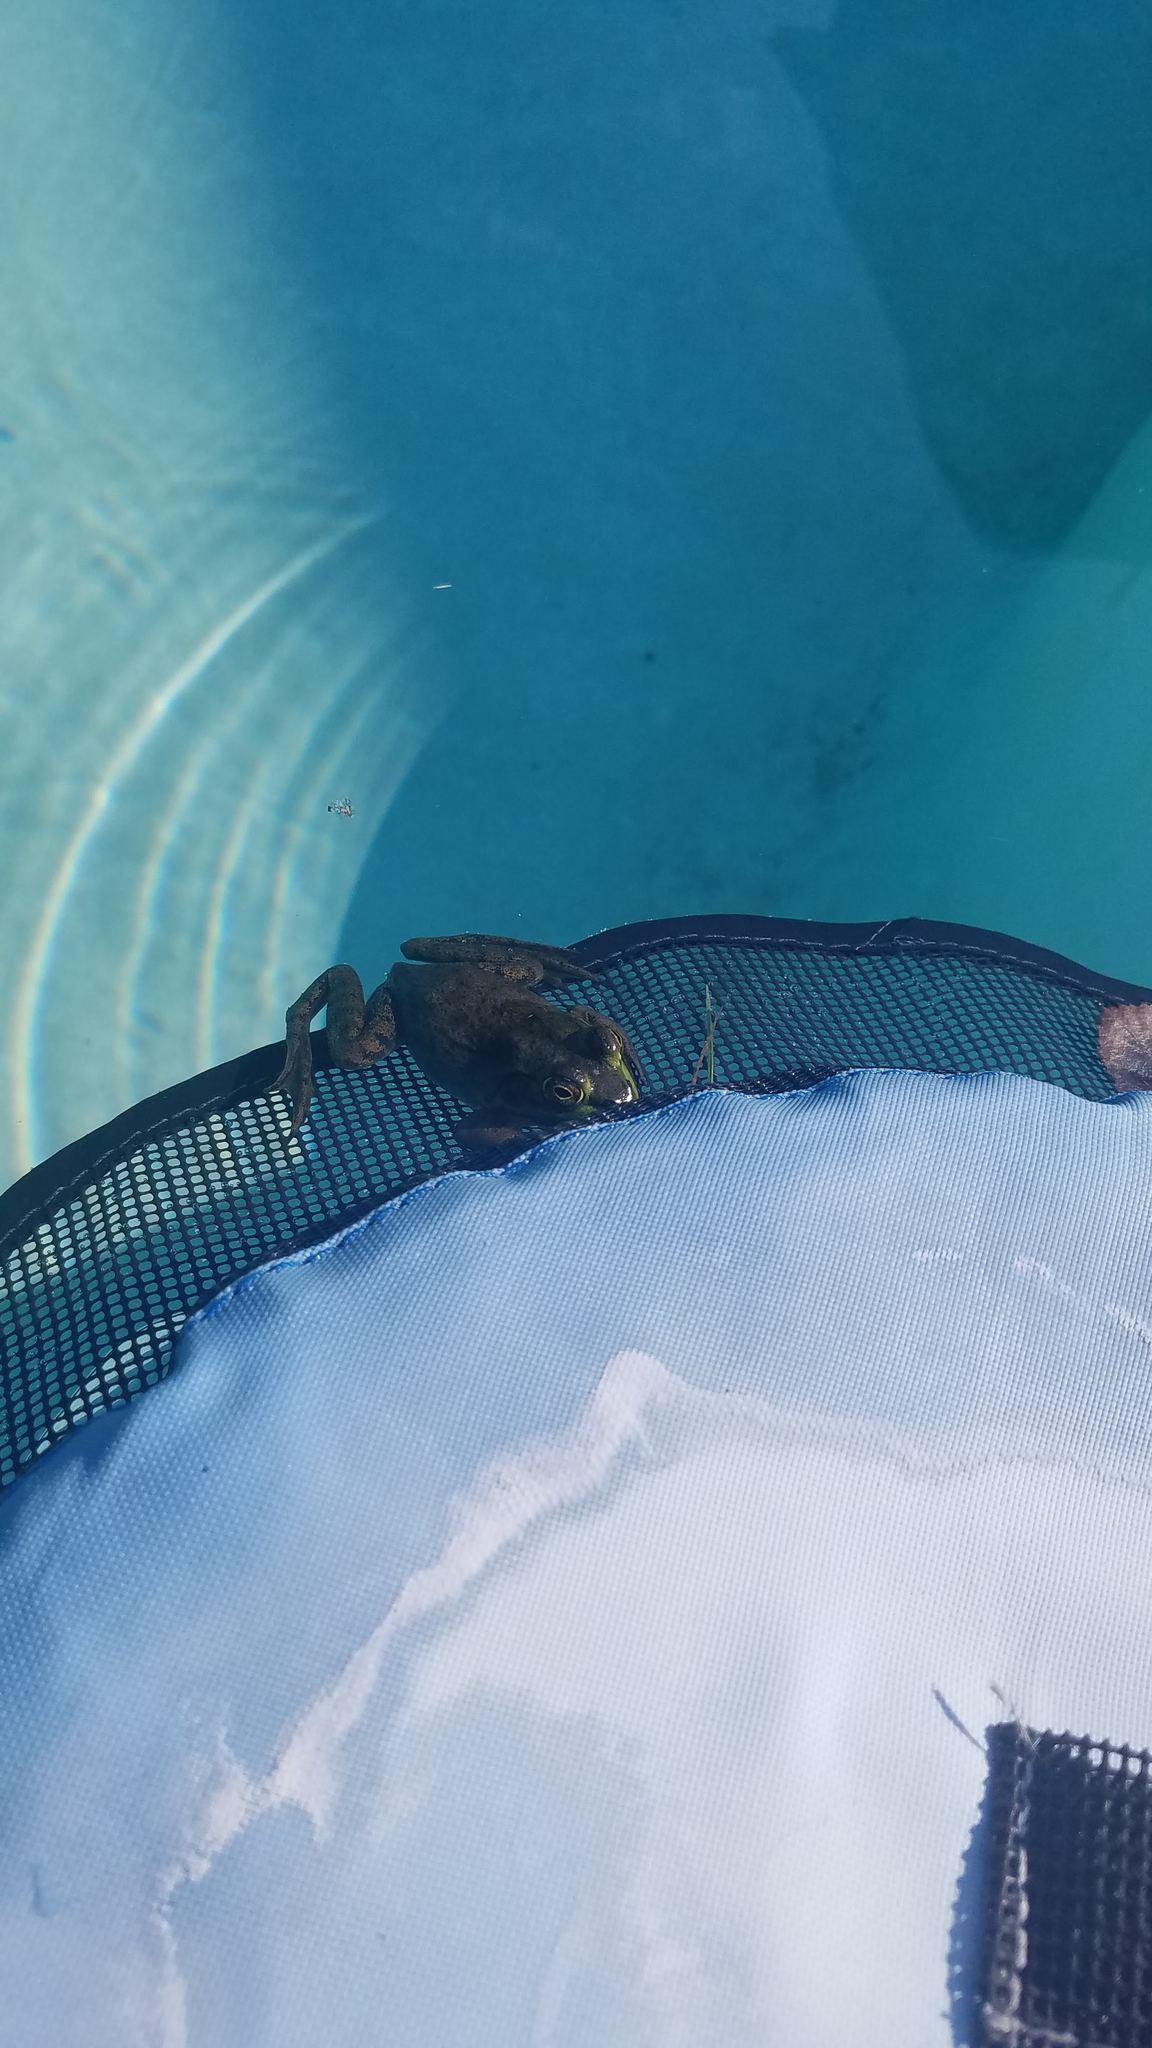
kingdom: Animalia
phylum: Chordata
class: Amphibia
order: Anura
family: Ranidae
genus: Lithobates
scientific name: Lithobates catesbeianus
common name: American bullfrog
